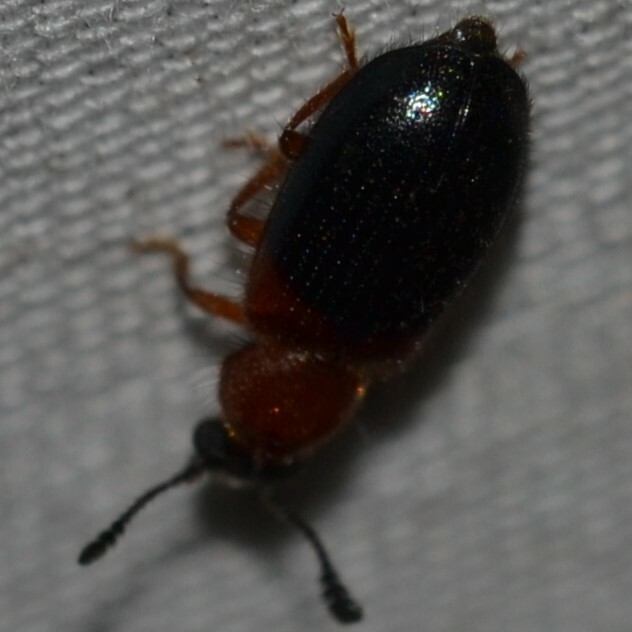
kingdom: Animalia
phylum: Arthropoda
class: Insecta
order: Coleoptera
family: Cleridae
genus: Necrobia
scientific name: Necrobia ruficollis
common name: Redshouldered ham beetle
